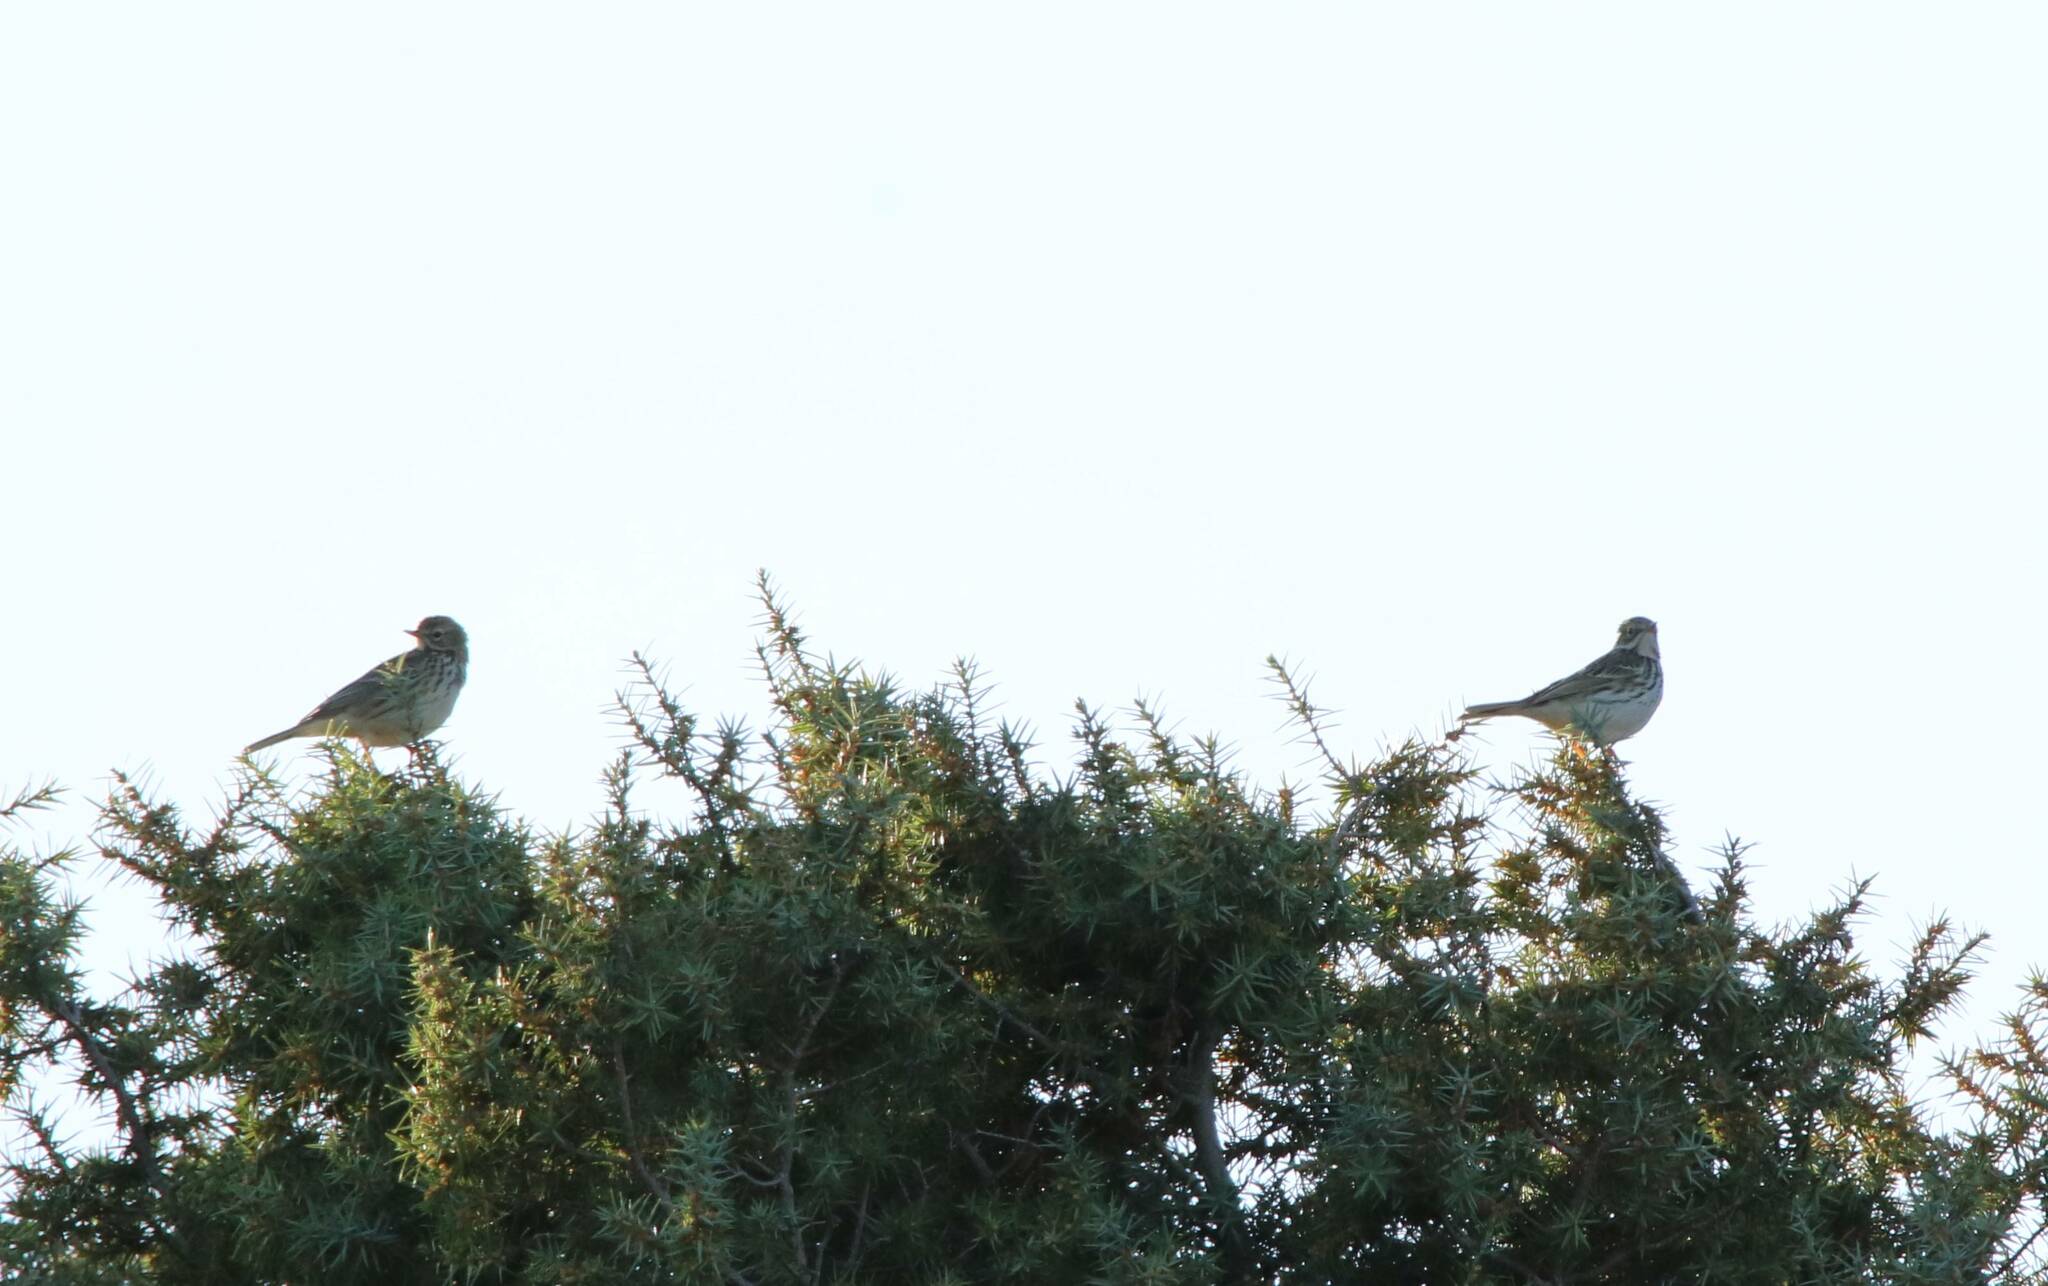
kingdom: Animalia
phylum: Chordata
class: Aves
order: Passeriformes
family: Motacillidae
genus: Anthus
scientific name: Anthus pratensis
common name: Meadow pipit
